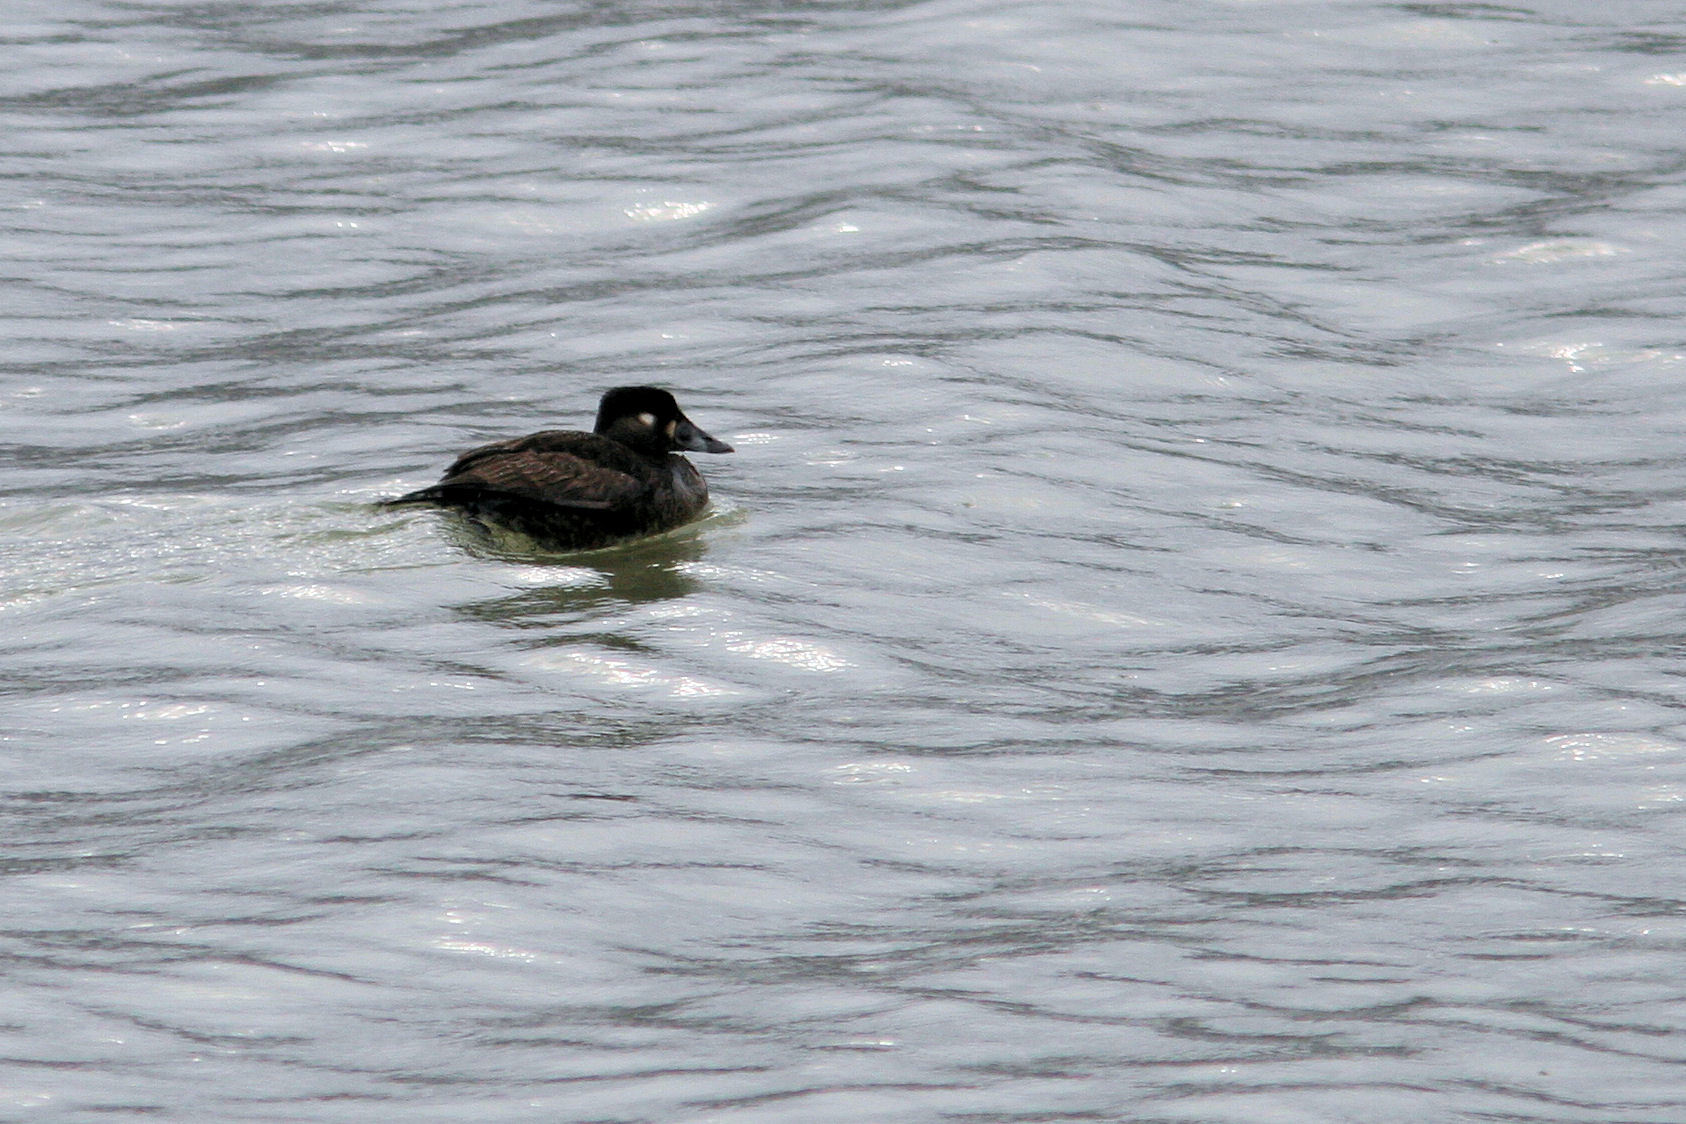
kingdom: Animalia
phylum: Chordata
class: Aves
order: Anseriformes
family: Anatidae
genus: Melanitta
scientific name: Melanitta perspicillata
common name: Surf scoter
